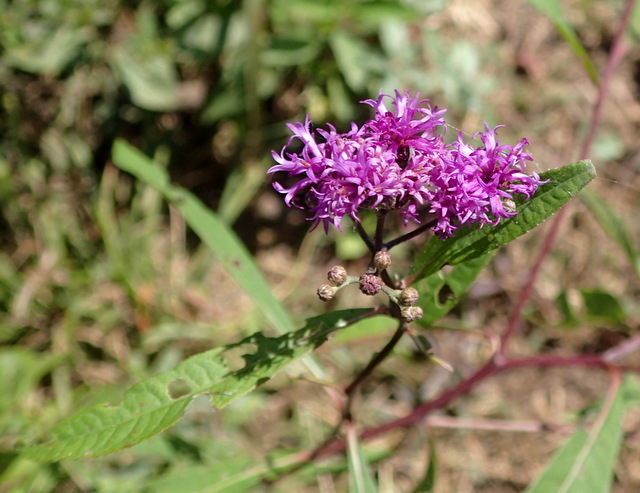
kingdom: Plantae
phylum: Tracheophyta
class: Magnoliopsida
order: Asterales
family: Asteraceae
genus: Vernonia
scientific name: Vernonia gigantea
